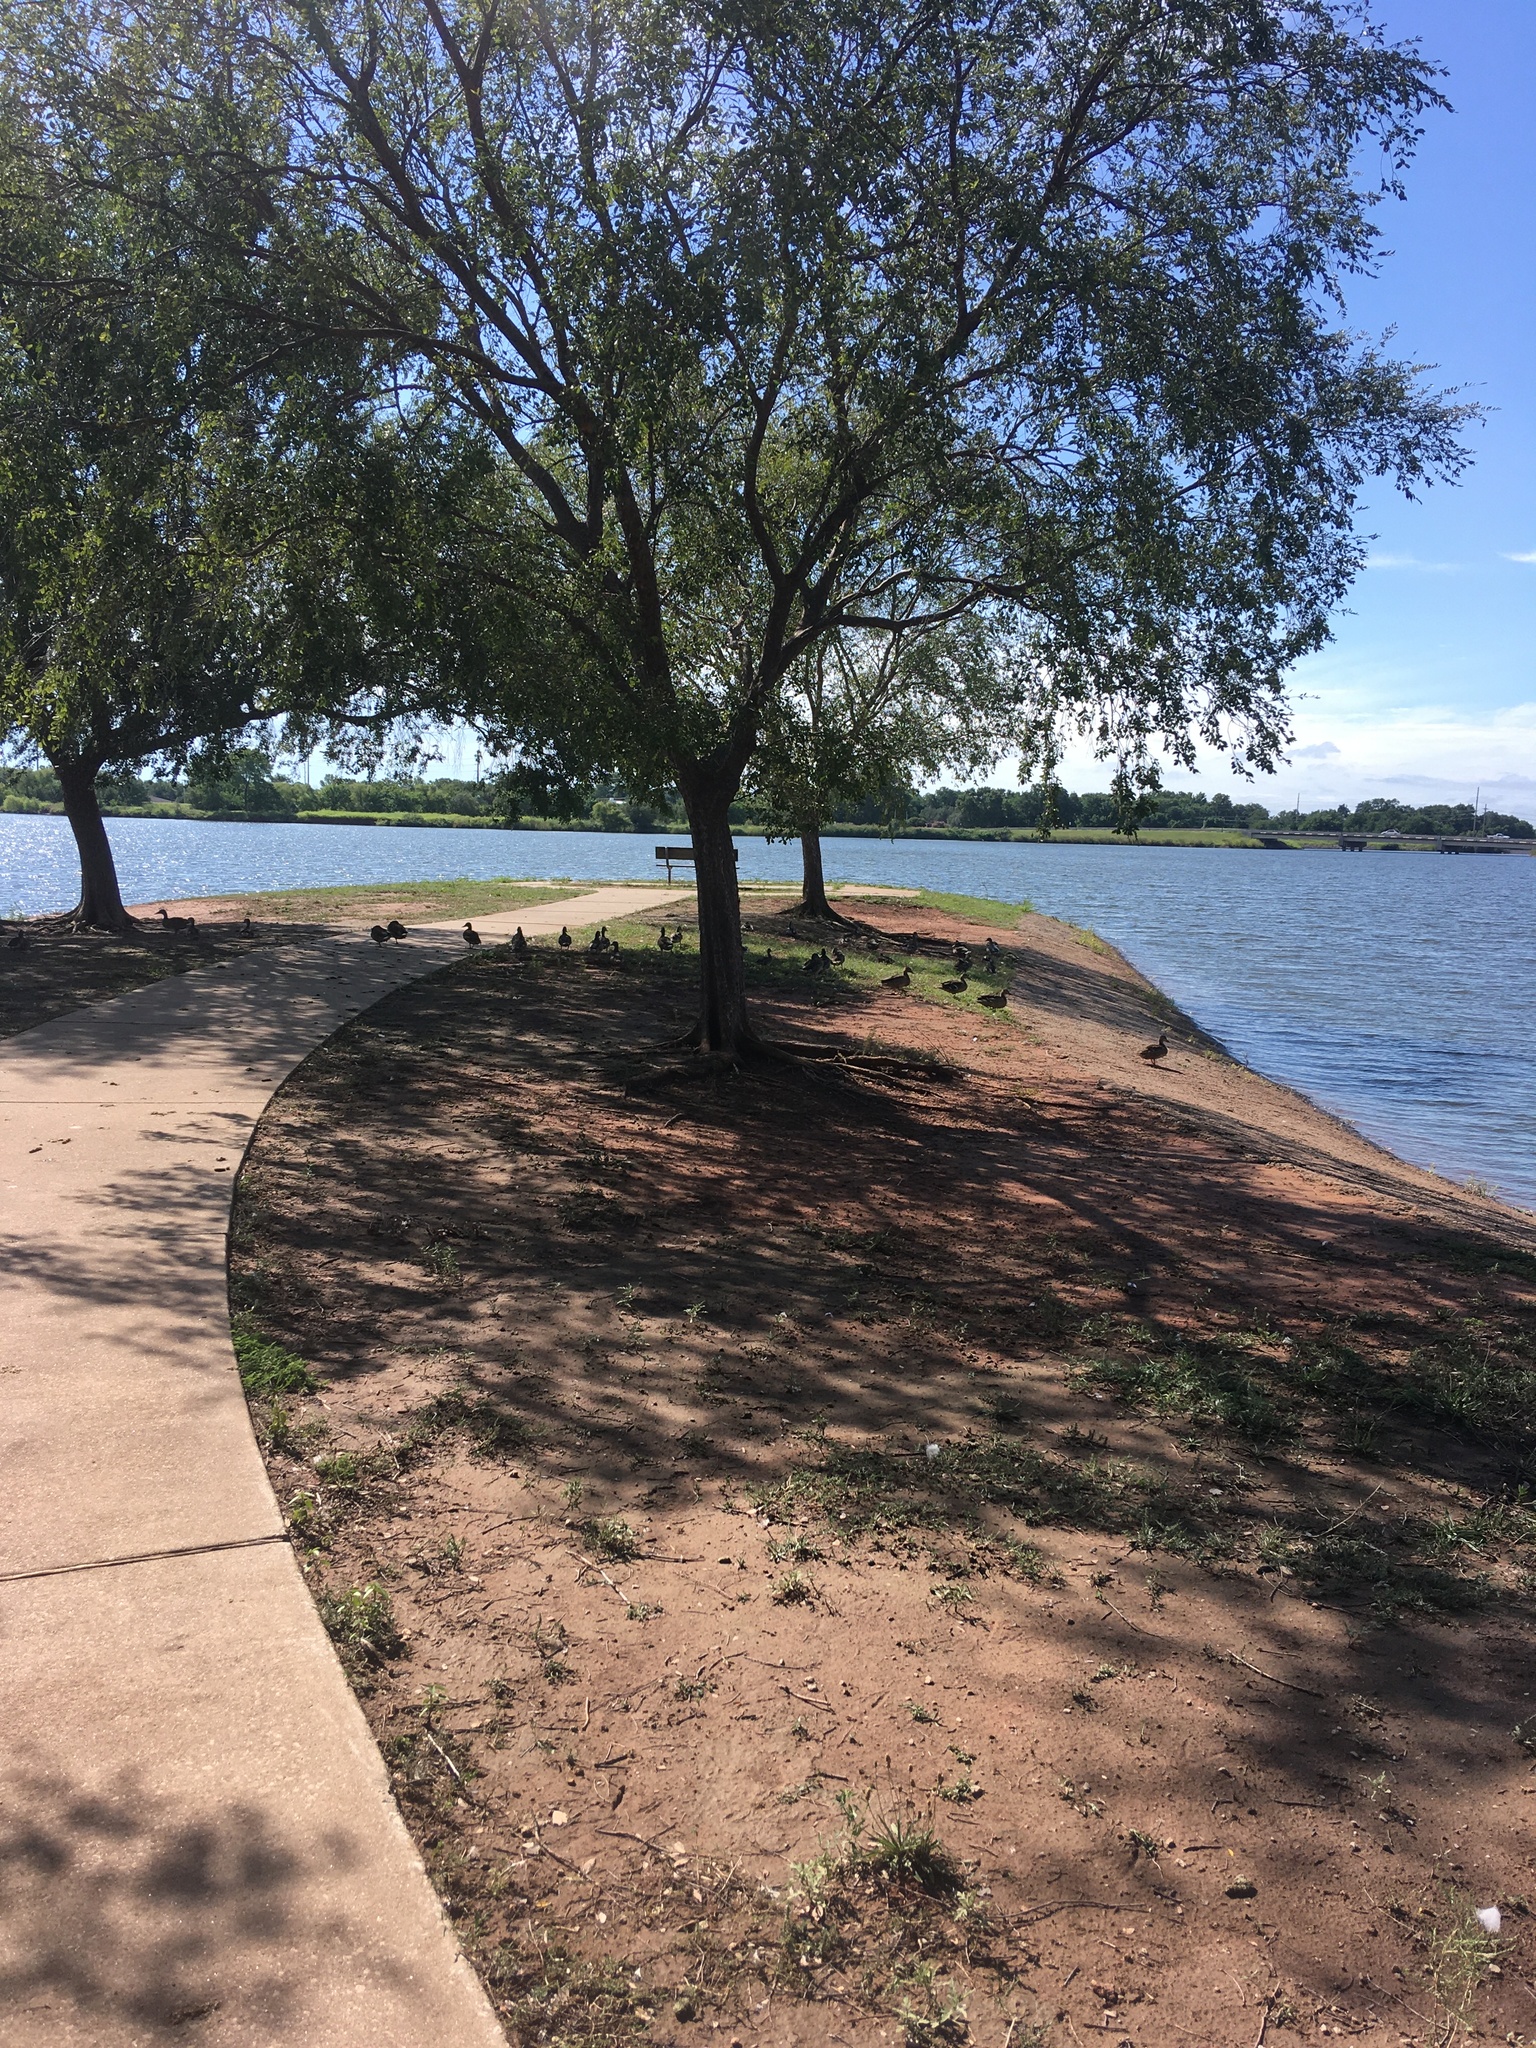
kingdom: Animalia
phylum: Chordata
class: Aves
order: Anseriformes
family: Anatidae
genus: Anas
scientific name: Anas platyrhynchos
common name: Mallard
